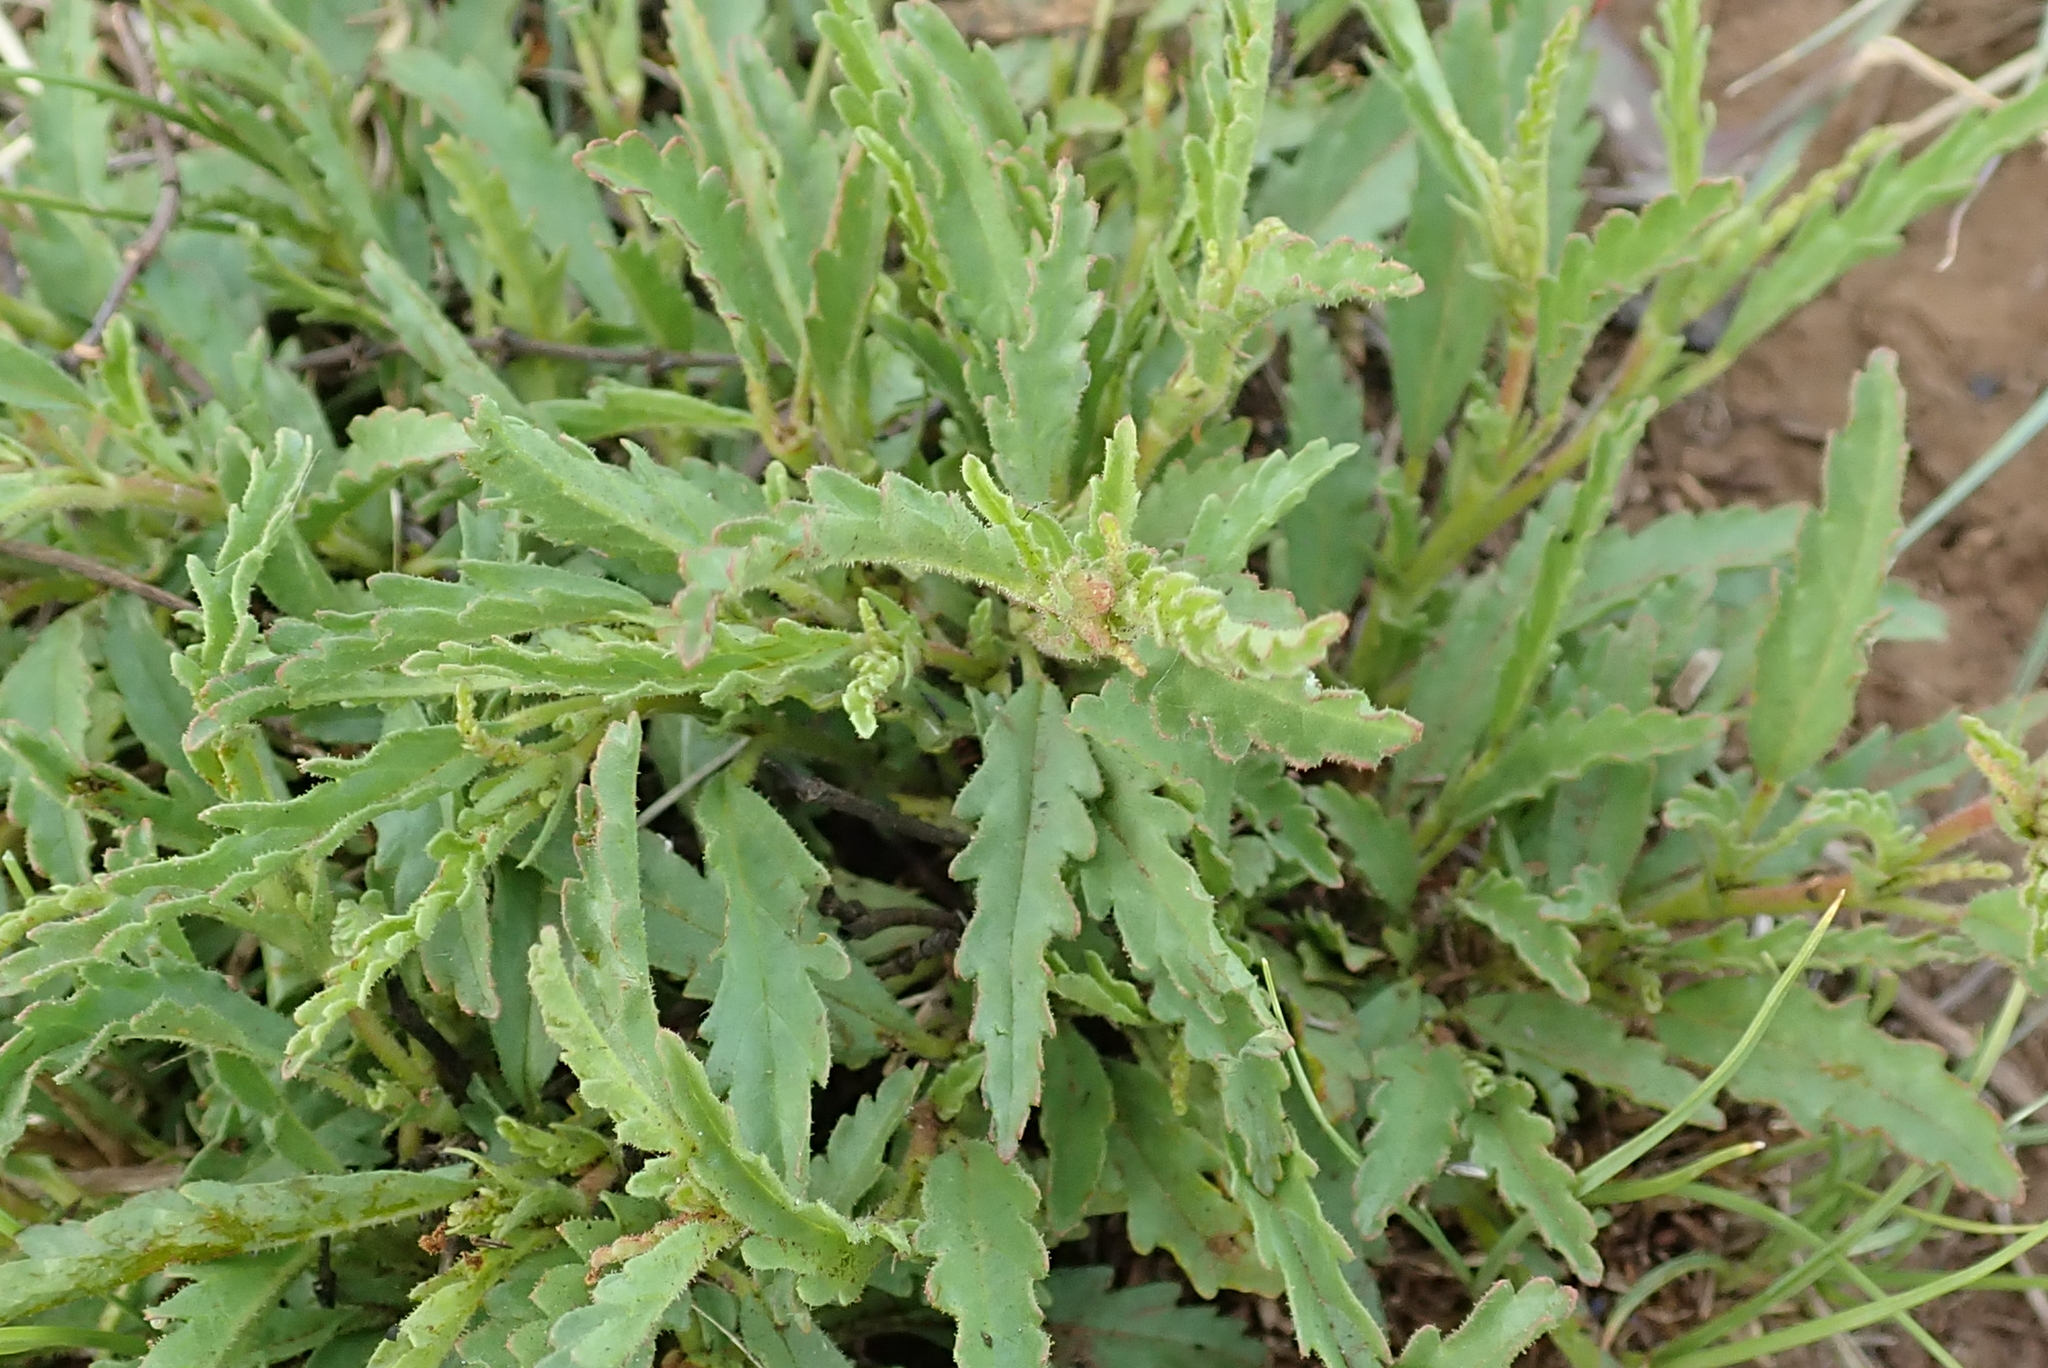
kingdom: Plantae
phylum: Tracheophyta
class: Magnoliopsida
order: Malvales
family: Malvaceae
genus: Hermannia
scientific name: Hermannia coccocarpa
